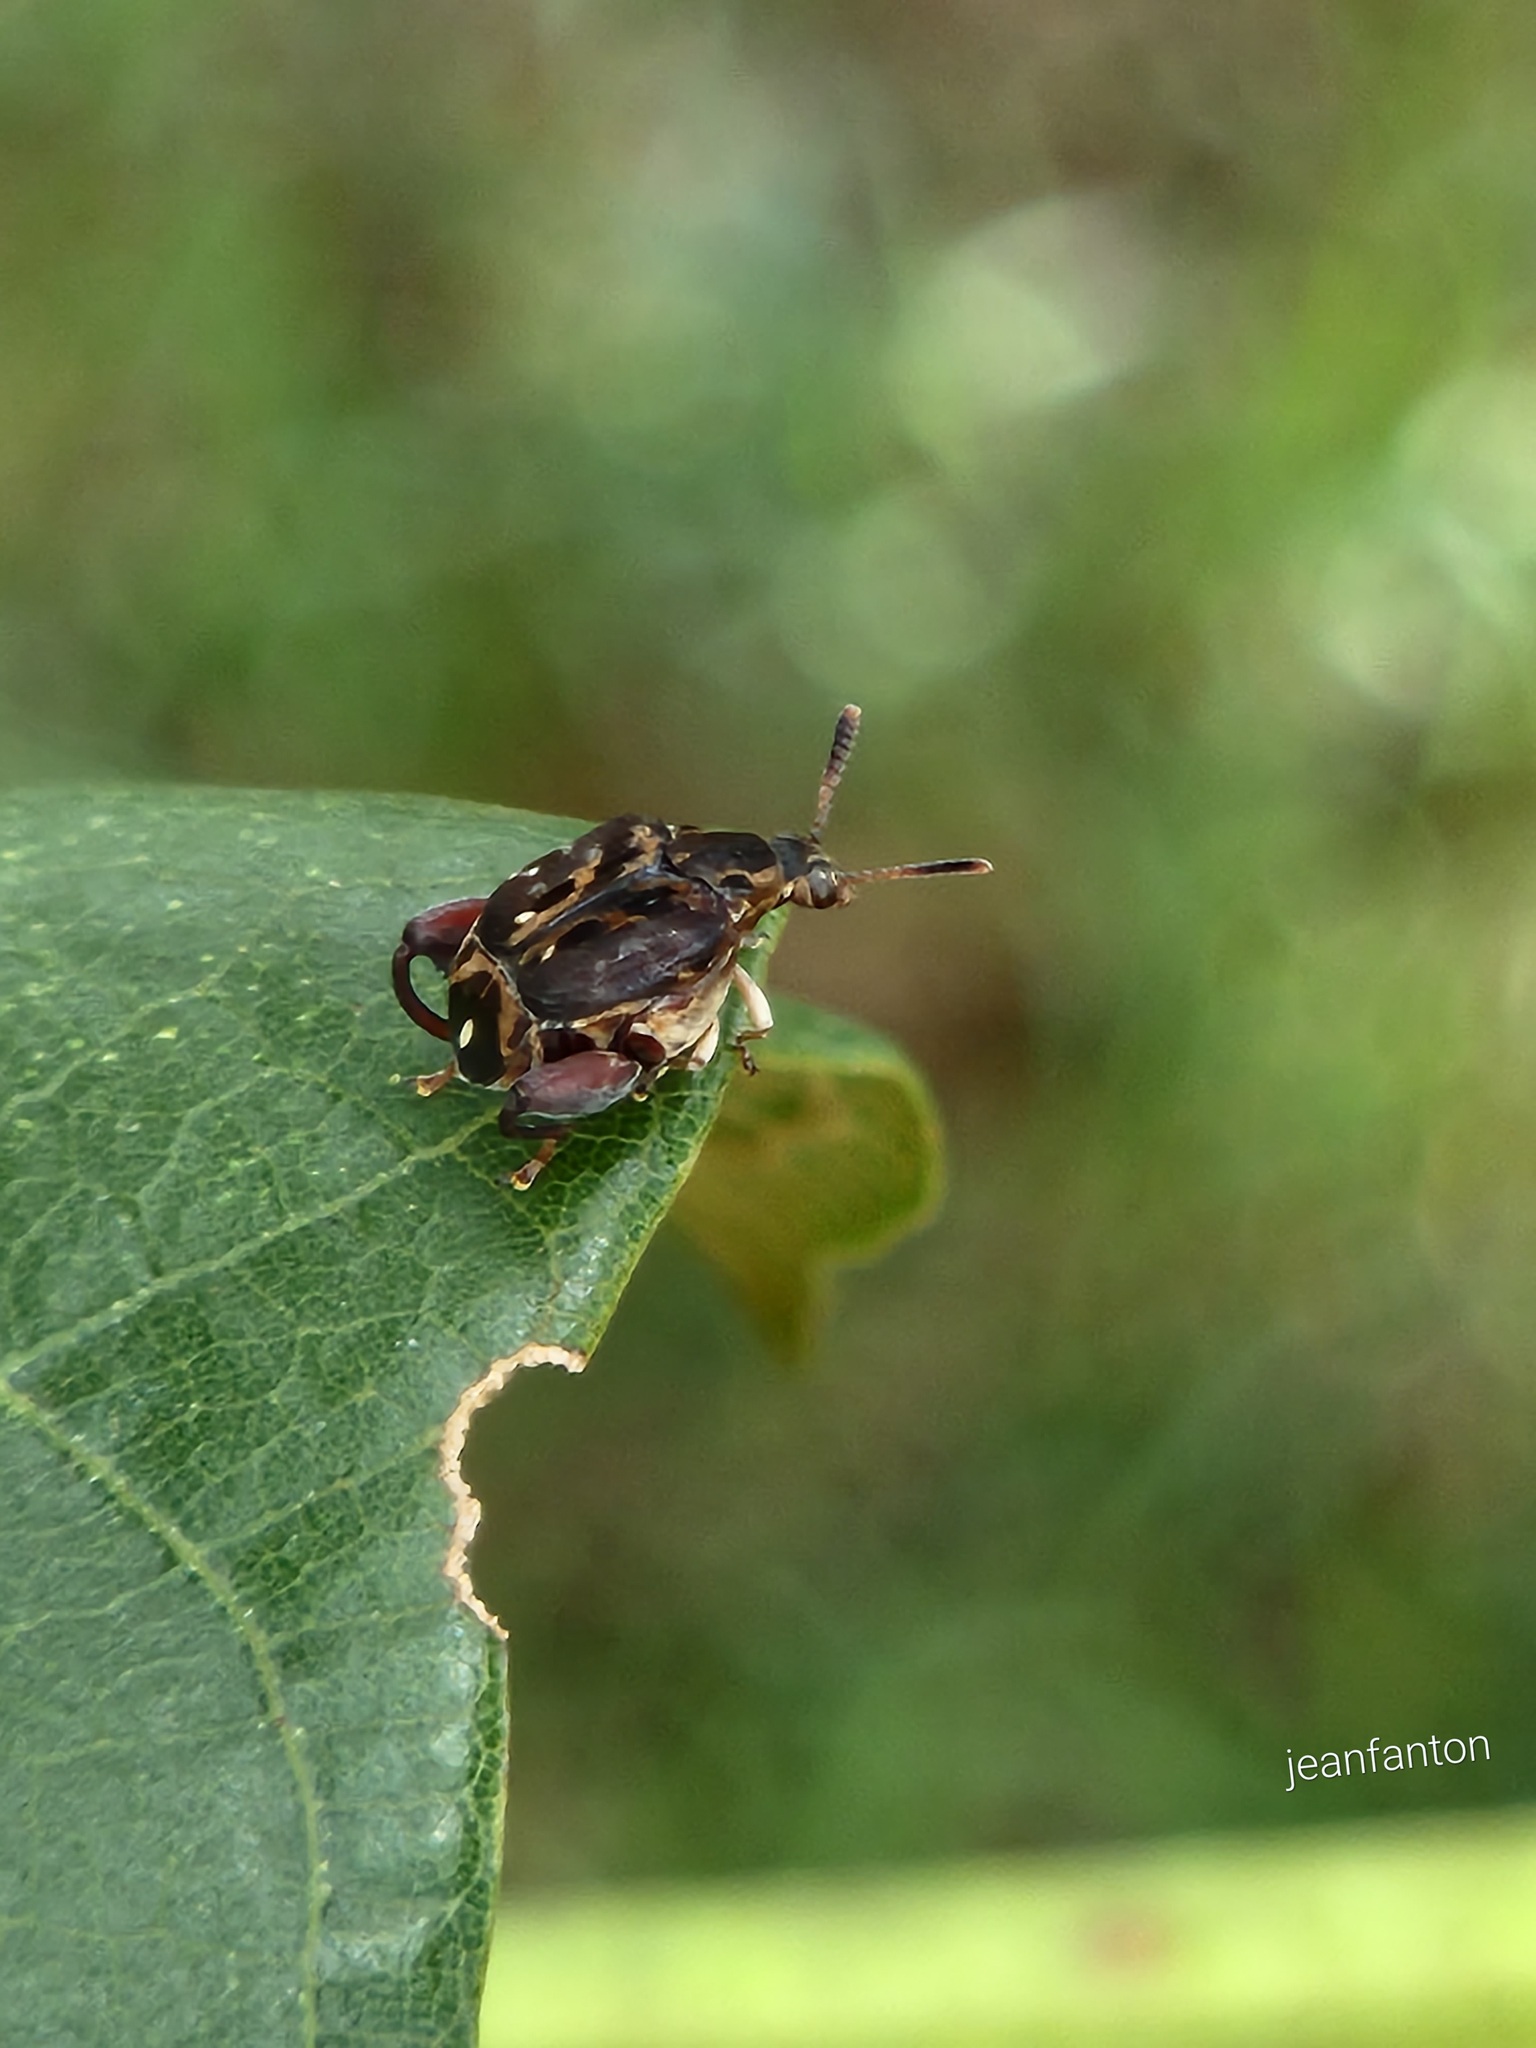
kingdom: Animalia
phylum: Arthropoda
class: Insecta
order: Coleoptera
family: Chrysomelidae
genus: Pygiopachymerus
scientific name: Pygiopachymerus lineola
